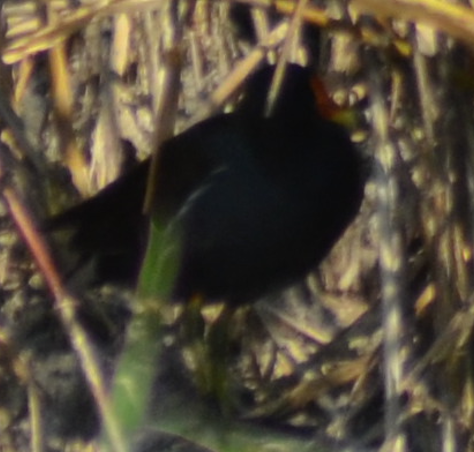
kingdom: Animalia
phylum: Chordata
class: Aves
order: Gruiformes
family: Rallidae
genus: Gallinula
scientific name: Gallinula chloropus
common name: Common moorhen
